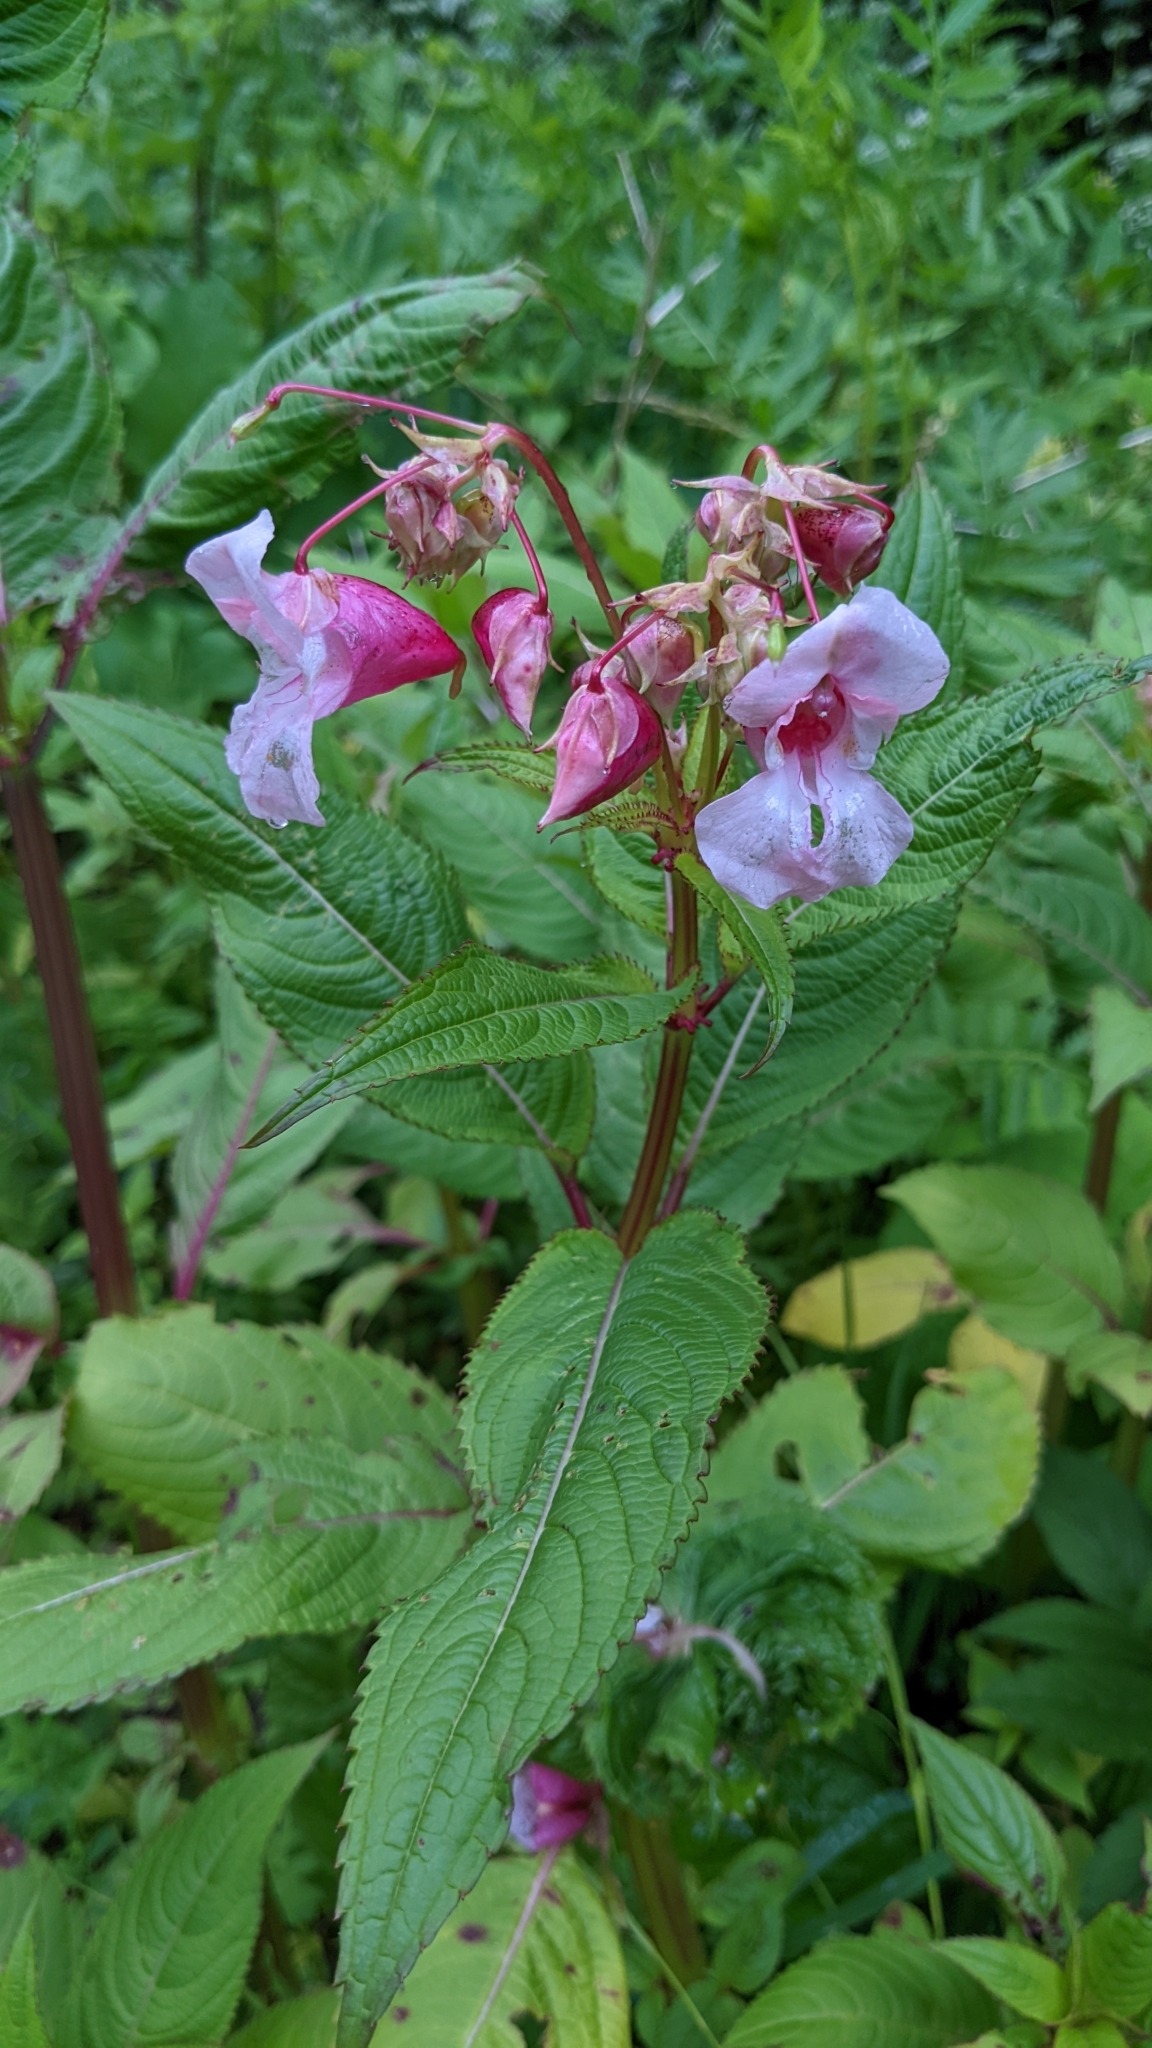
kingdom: Plantae
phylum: Tracheophyta
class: Magnoliopsida
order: Ericales
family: Balsaminaceae
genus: Impatiens
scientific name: Impatiens glandulifera
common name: Himalayan balsam
